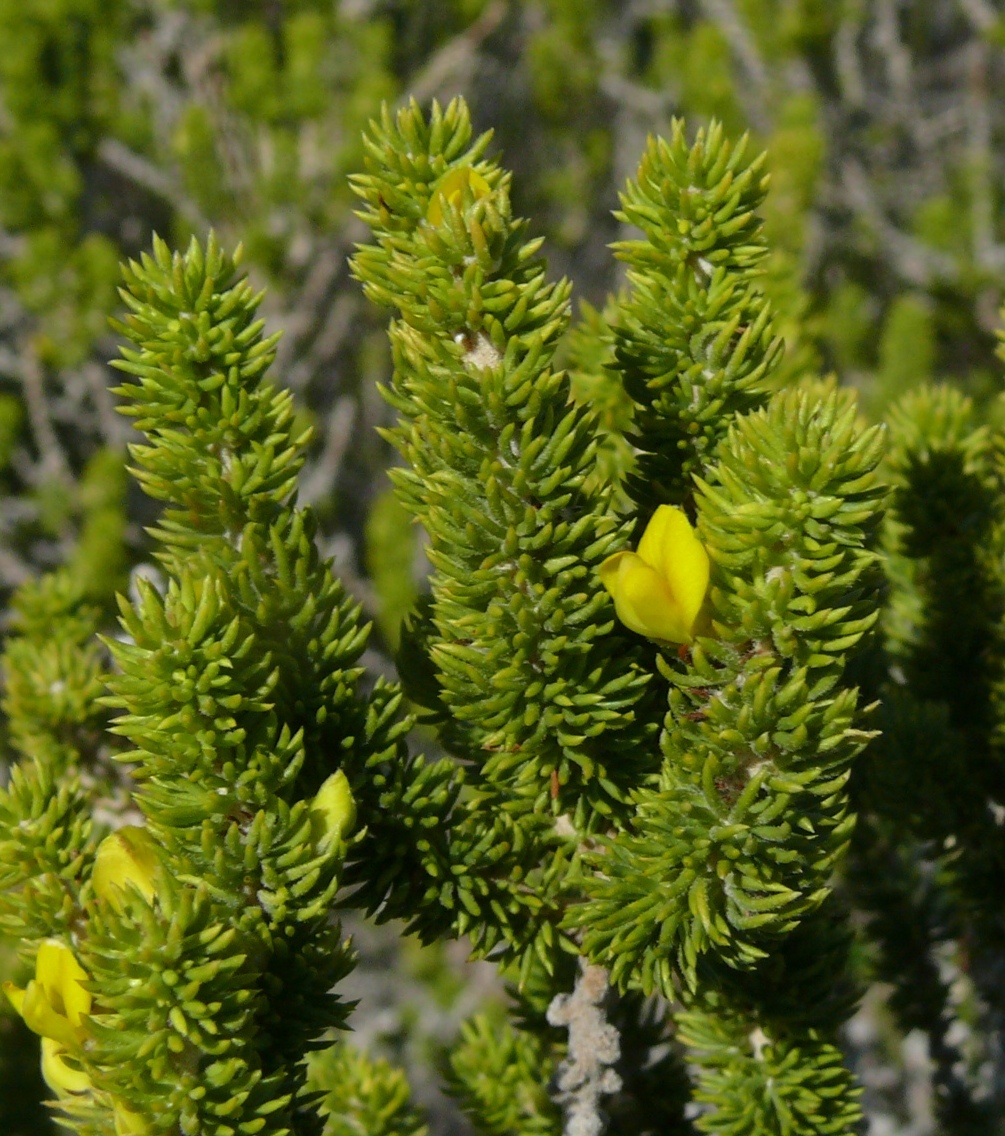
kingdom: Plantae
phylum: Tracheophyta
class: Magnoliopsida
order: Fabales
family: Fabaceae
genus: Aspalathus
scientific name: Aspalathus pinguis
